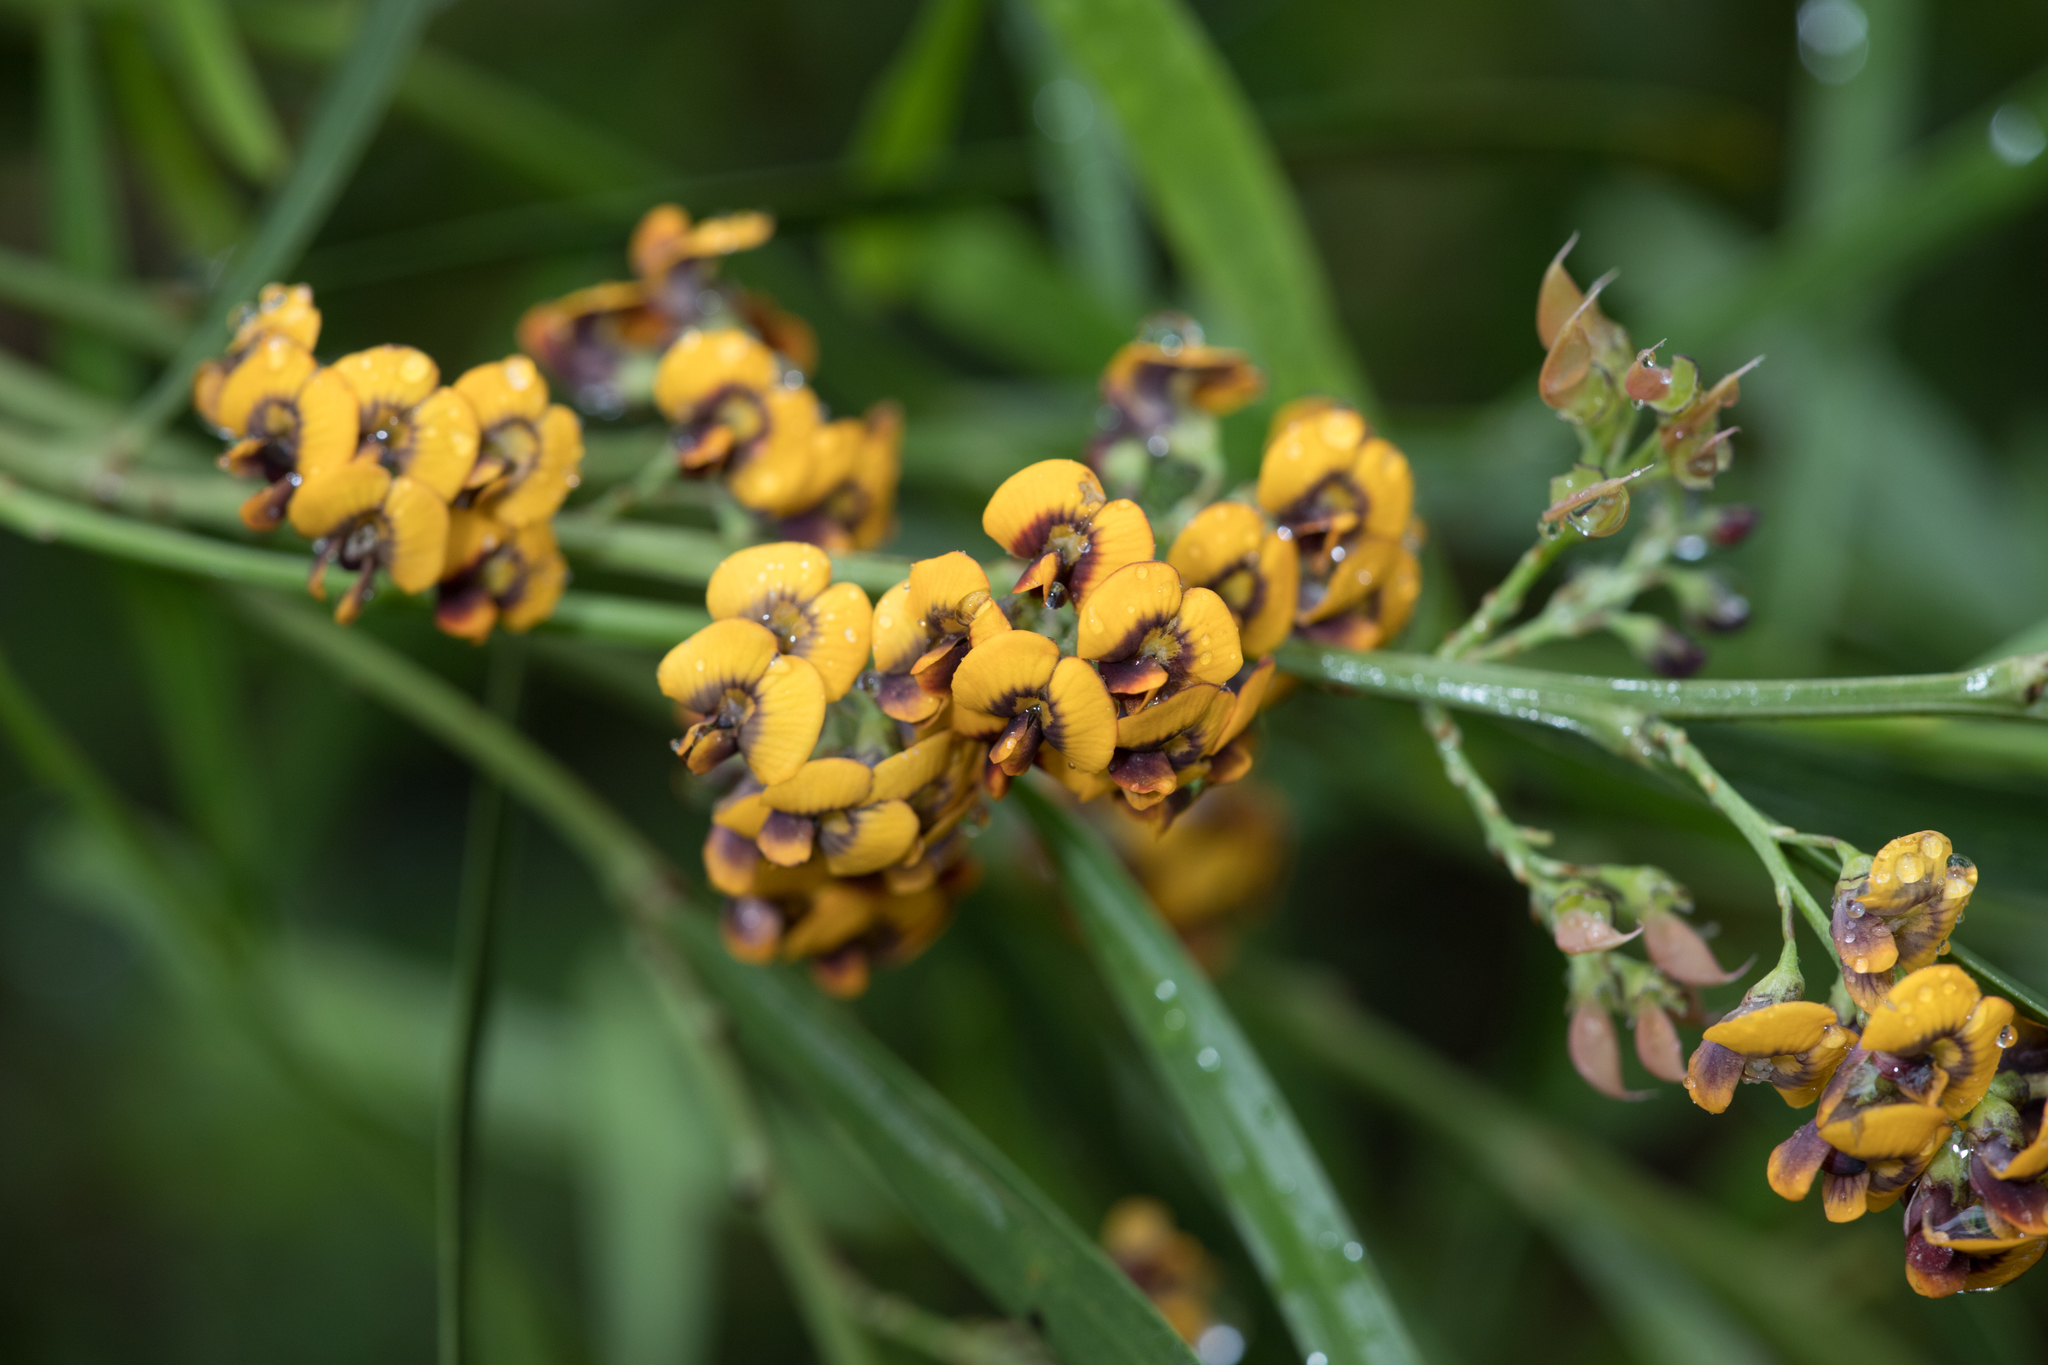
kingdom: Plantae
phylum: Tracheophyta
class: Magnoliopsida
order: Fabales
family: Fabaceae
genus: Daviesia
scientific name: Daviesia leptophylla
